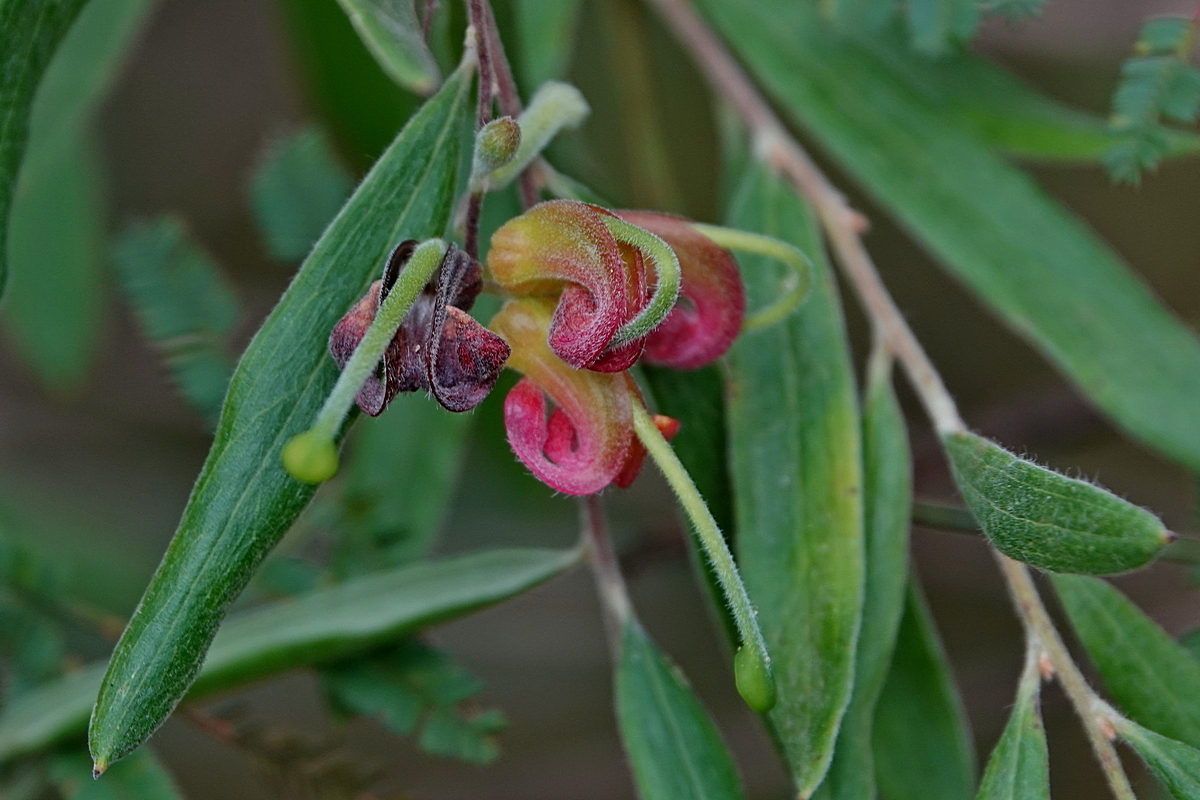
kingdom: Plantae
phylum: Tracheophyta
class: Magnoliopsida
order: Proteales
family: Proteaceae
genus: Grevillea
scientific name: Grevillea arenaria
